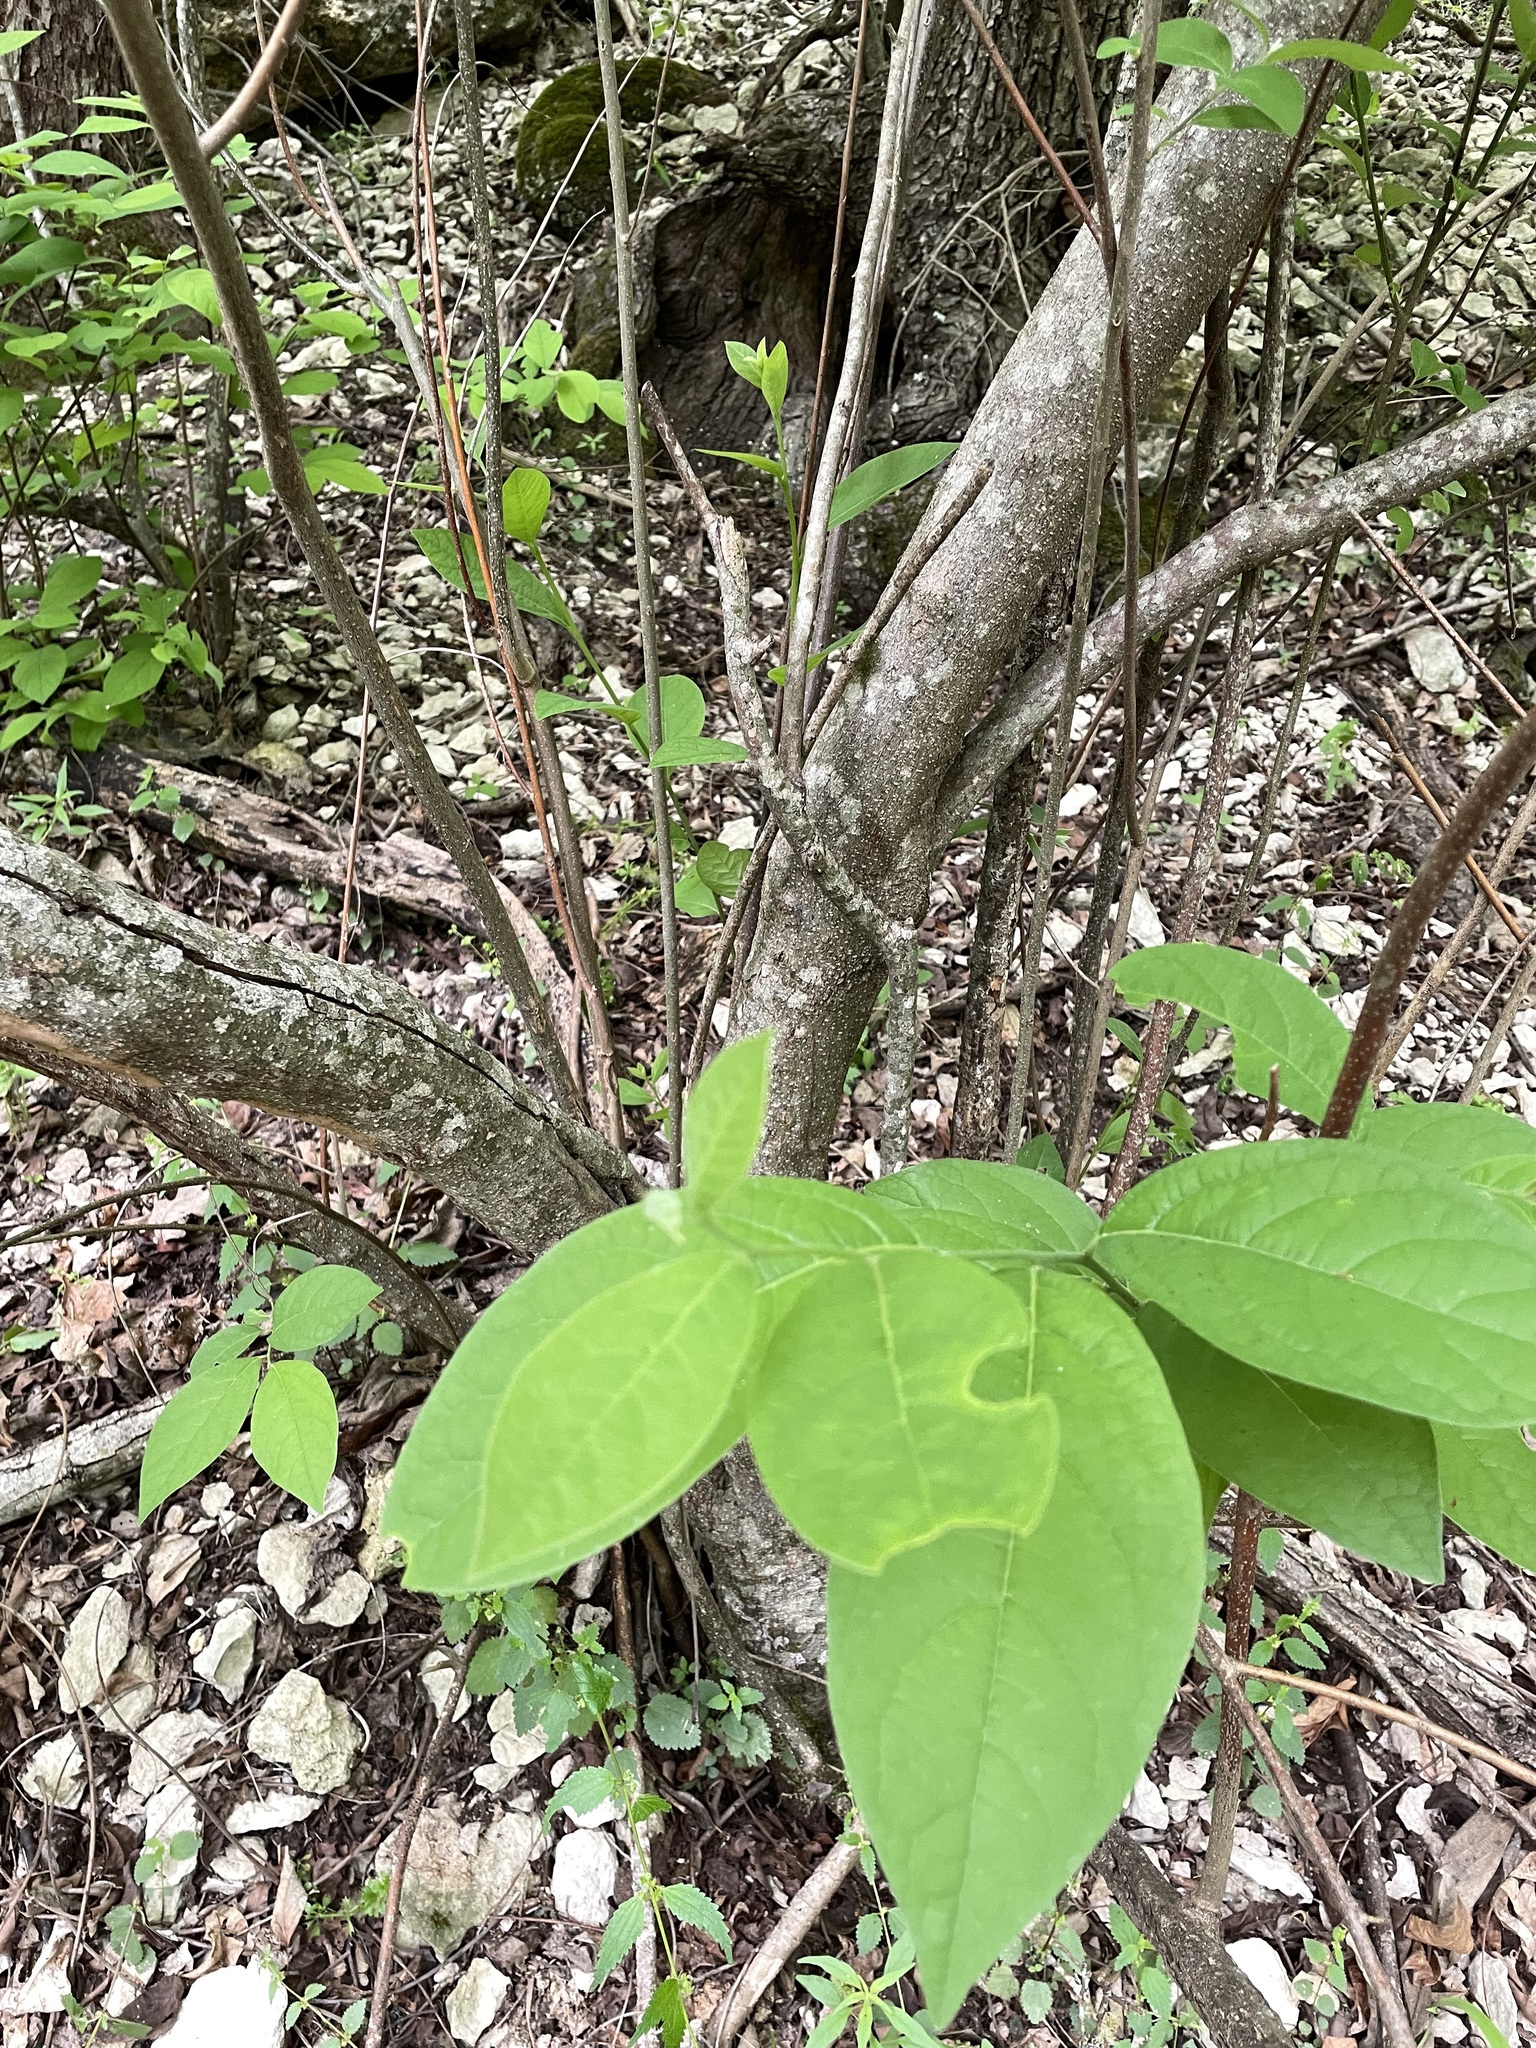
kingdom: Plantae
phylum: Tracheophyta
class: Magnoliopsida
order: Laurales
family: Lauraceae
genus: Lindera
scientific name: Lindera benzoin
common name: Spicebush
